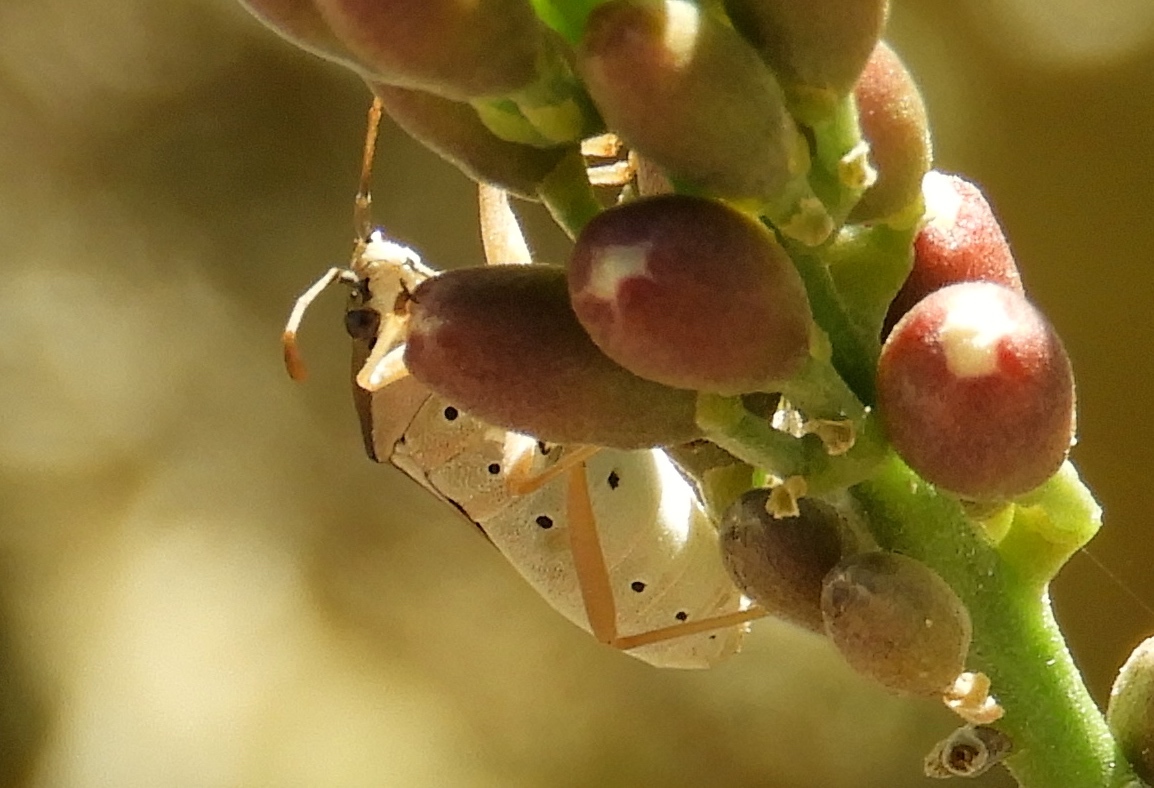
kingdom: Animalia
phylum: Arthropoda
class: Insecta
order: Hemiptera
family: Coreidae
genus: Catorhintha
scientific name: Catorhintha
